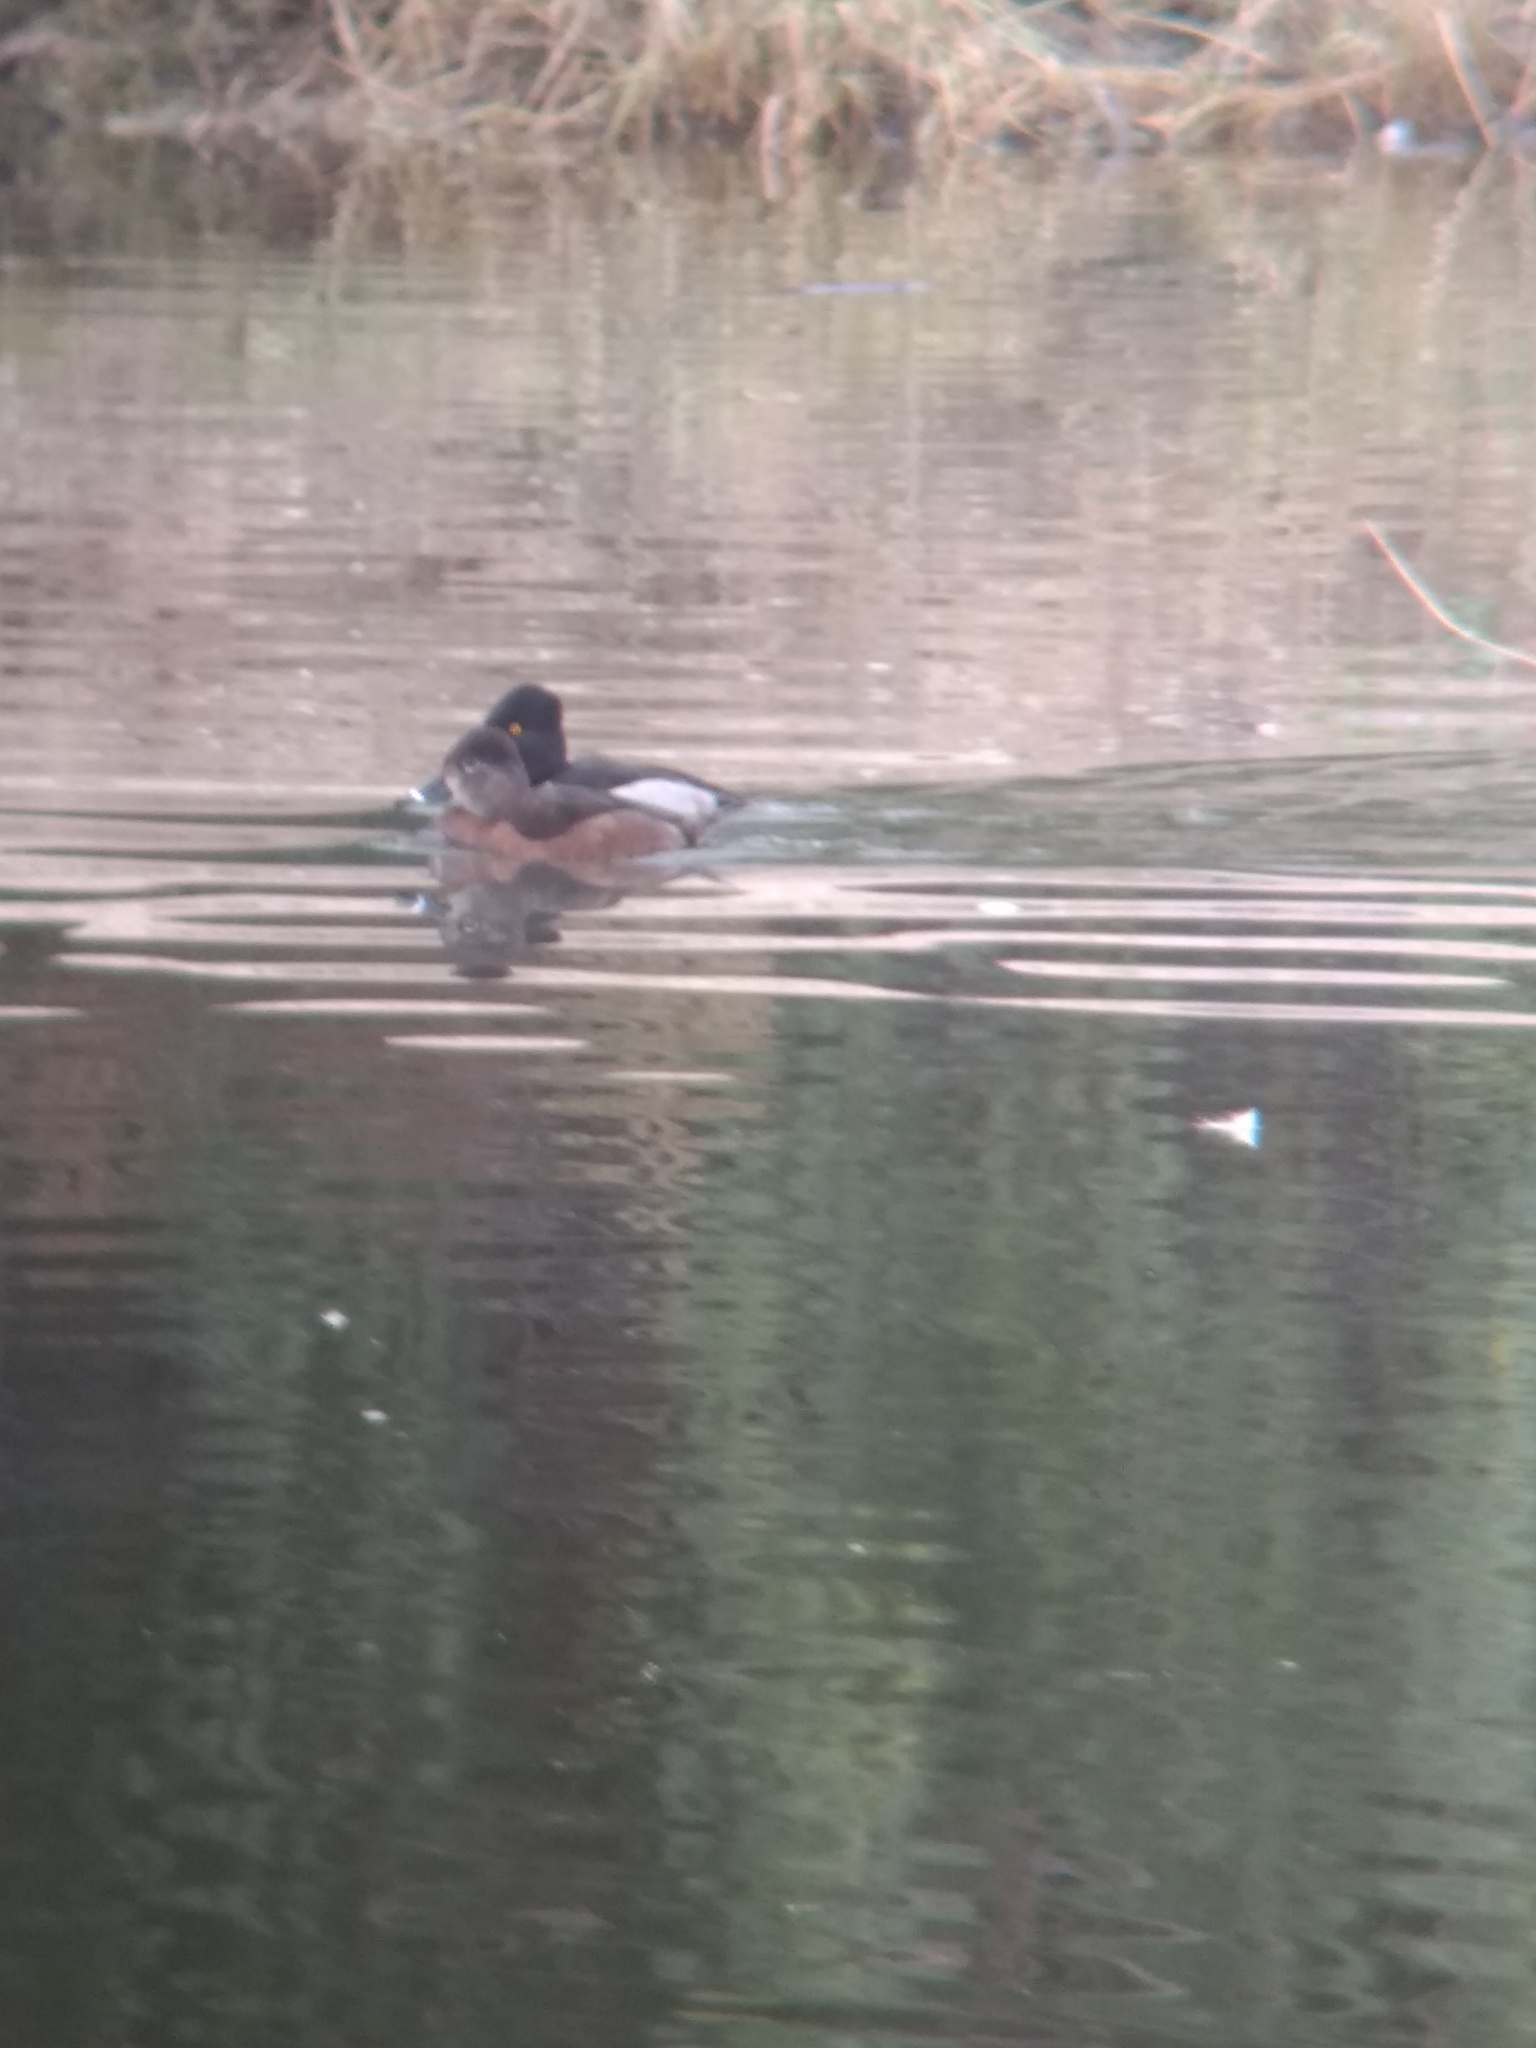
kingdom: Animalia
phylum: Chordata
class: Aves
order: Anseriformes
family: Anatidae
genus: Aythya
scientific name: Aythya collaris
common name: Ring-necked duck
